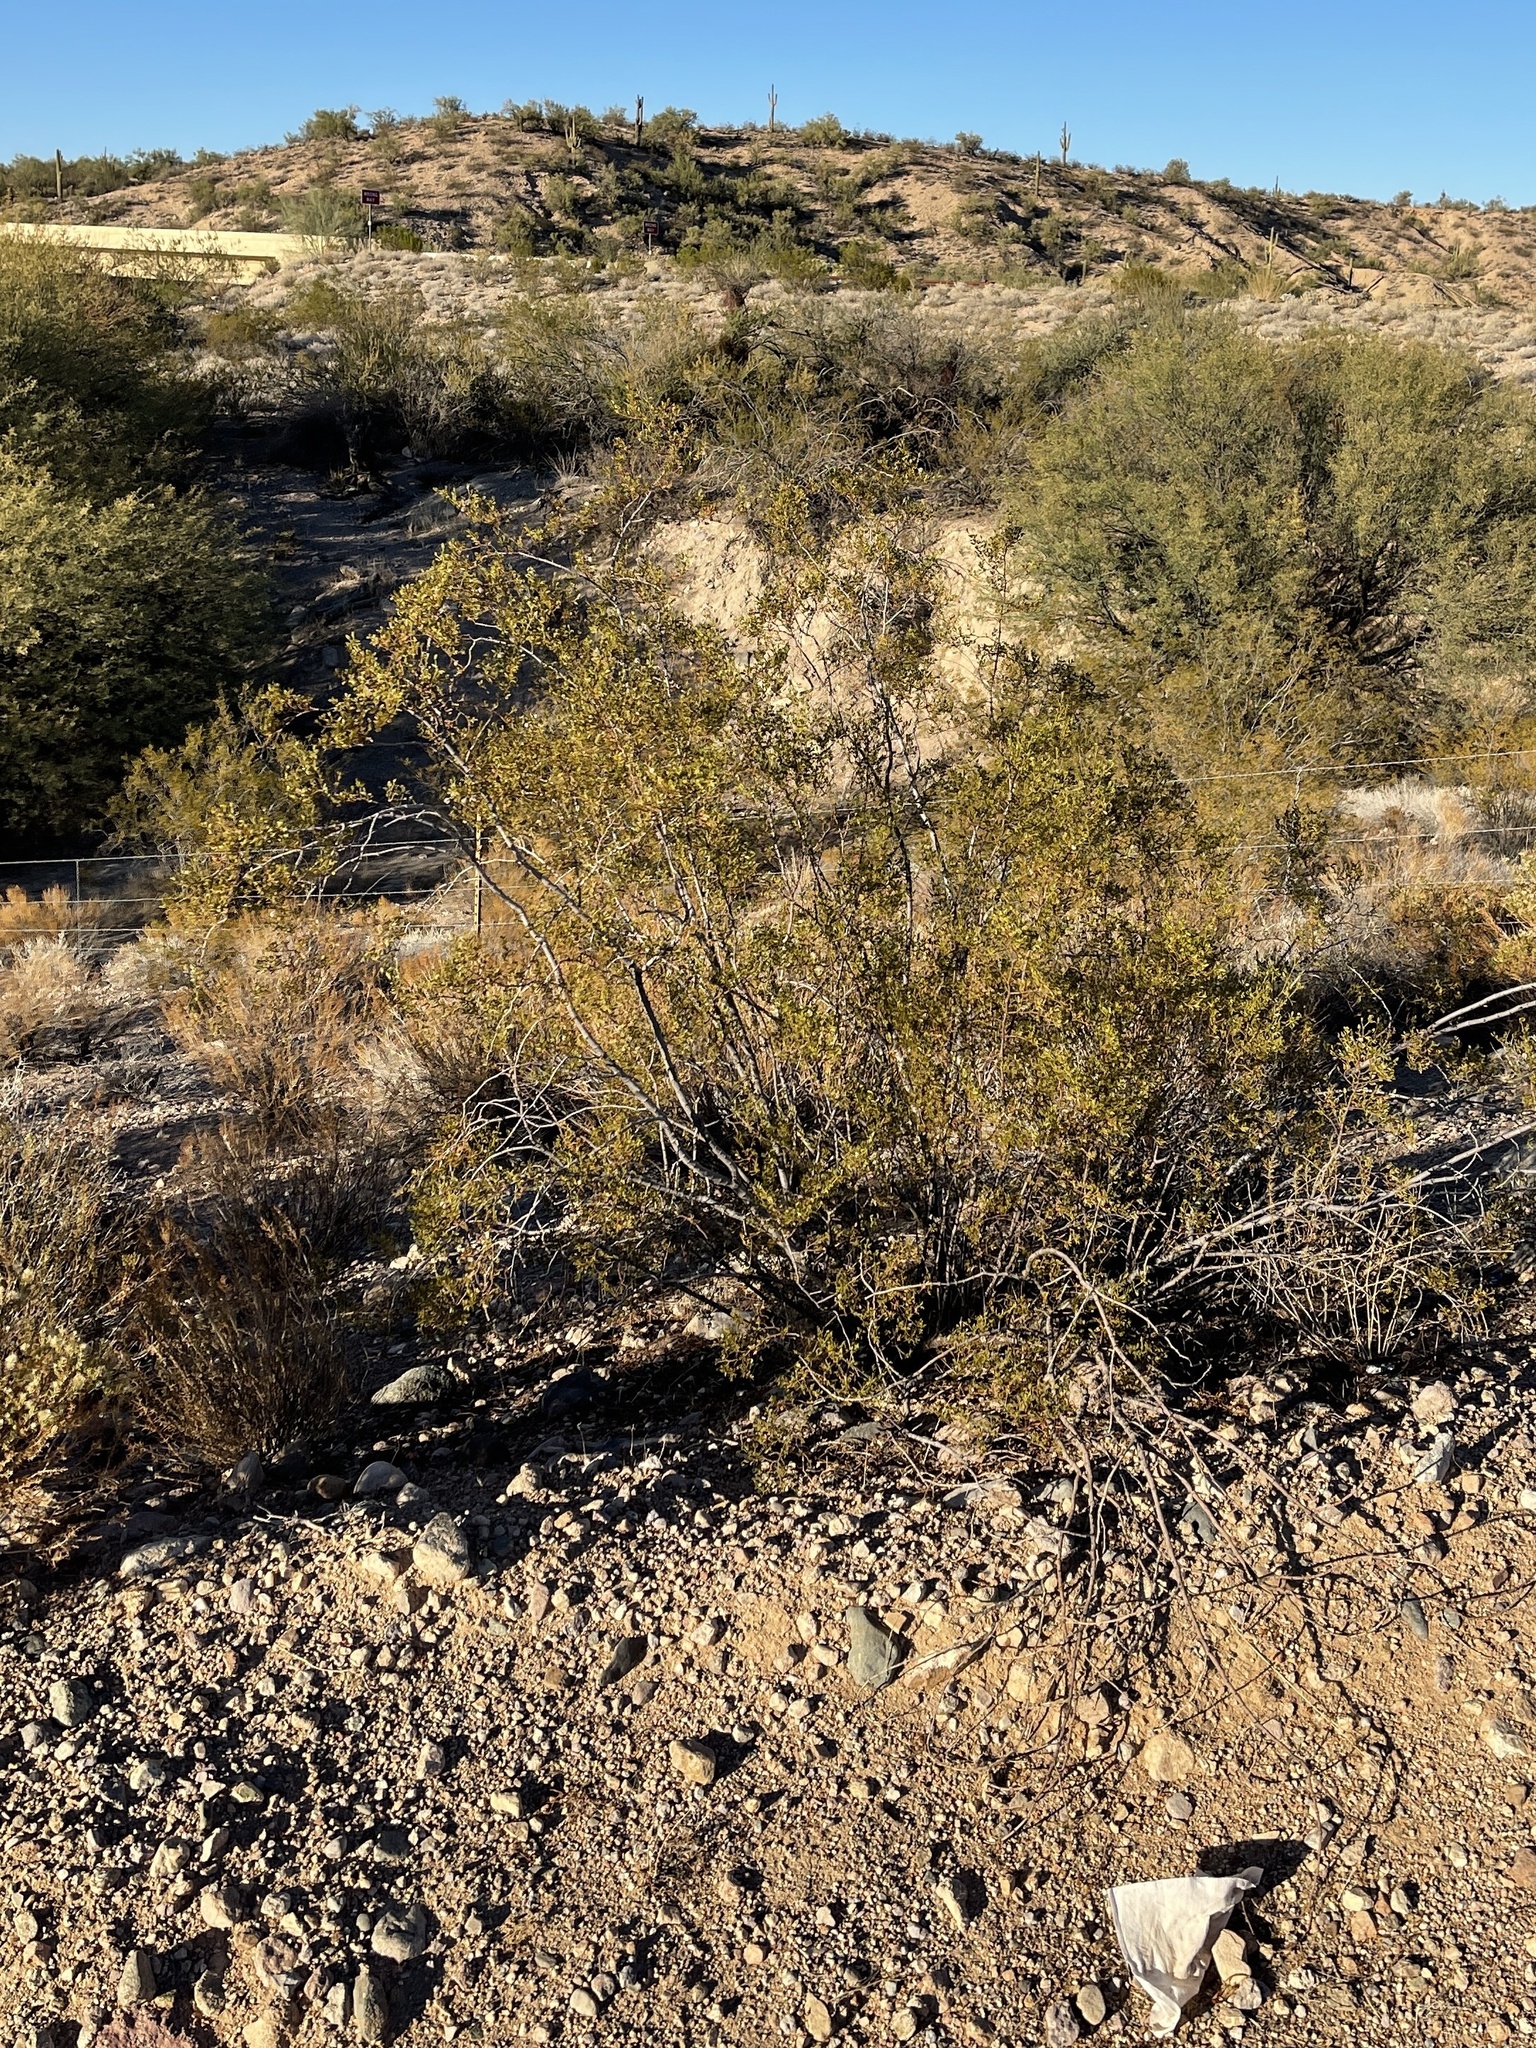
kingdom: Plantae
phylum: Tracheophyta
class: Magnoliopsida
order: Zygophyllales
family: Zygophyllaceae
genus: Larrea
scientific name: Larrea tridentata
